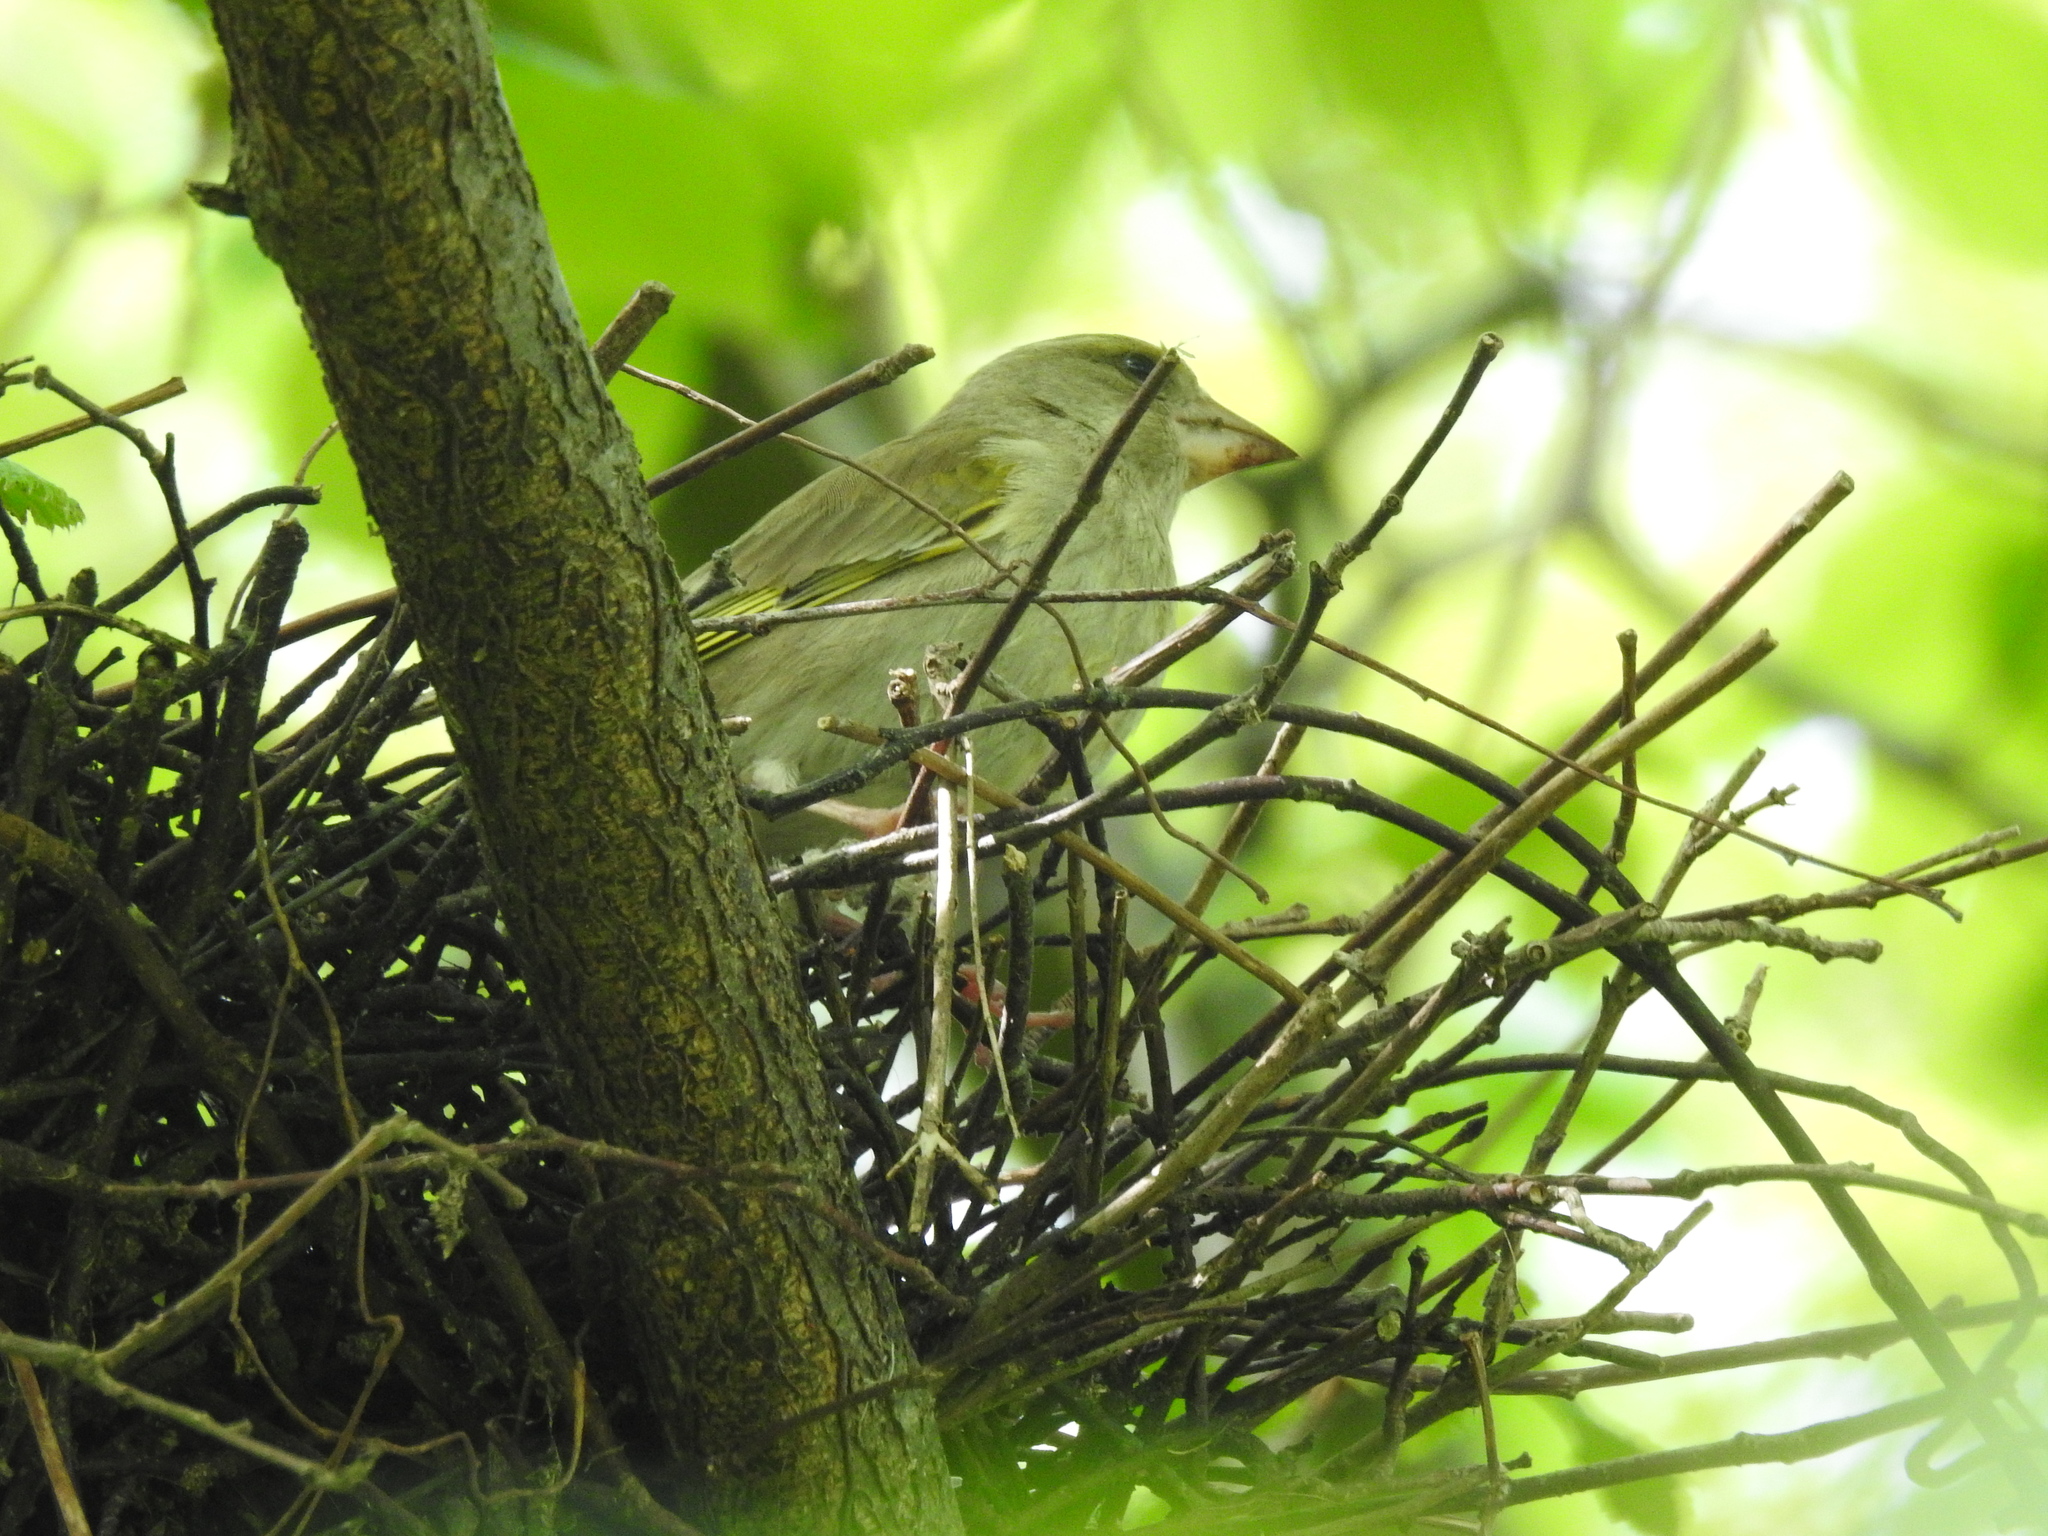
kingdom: Plantae
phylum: Tracheophyta
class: Liliopsida
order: Poales
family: Poaceae
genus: Chloris
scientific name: Chloris chloris
